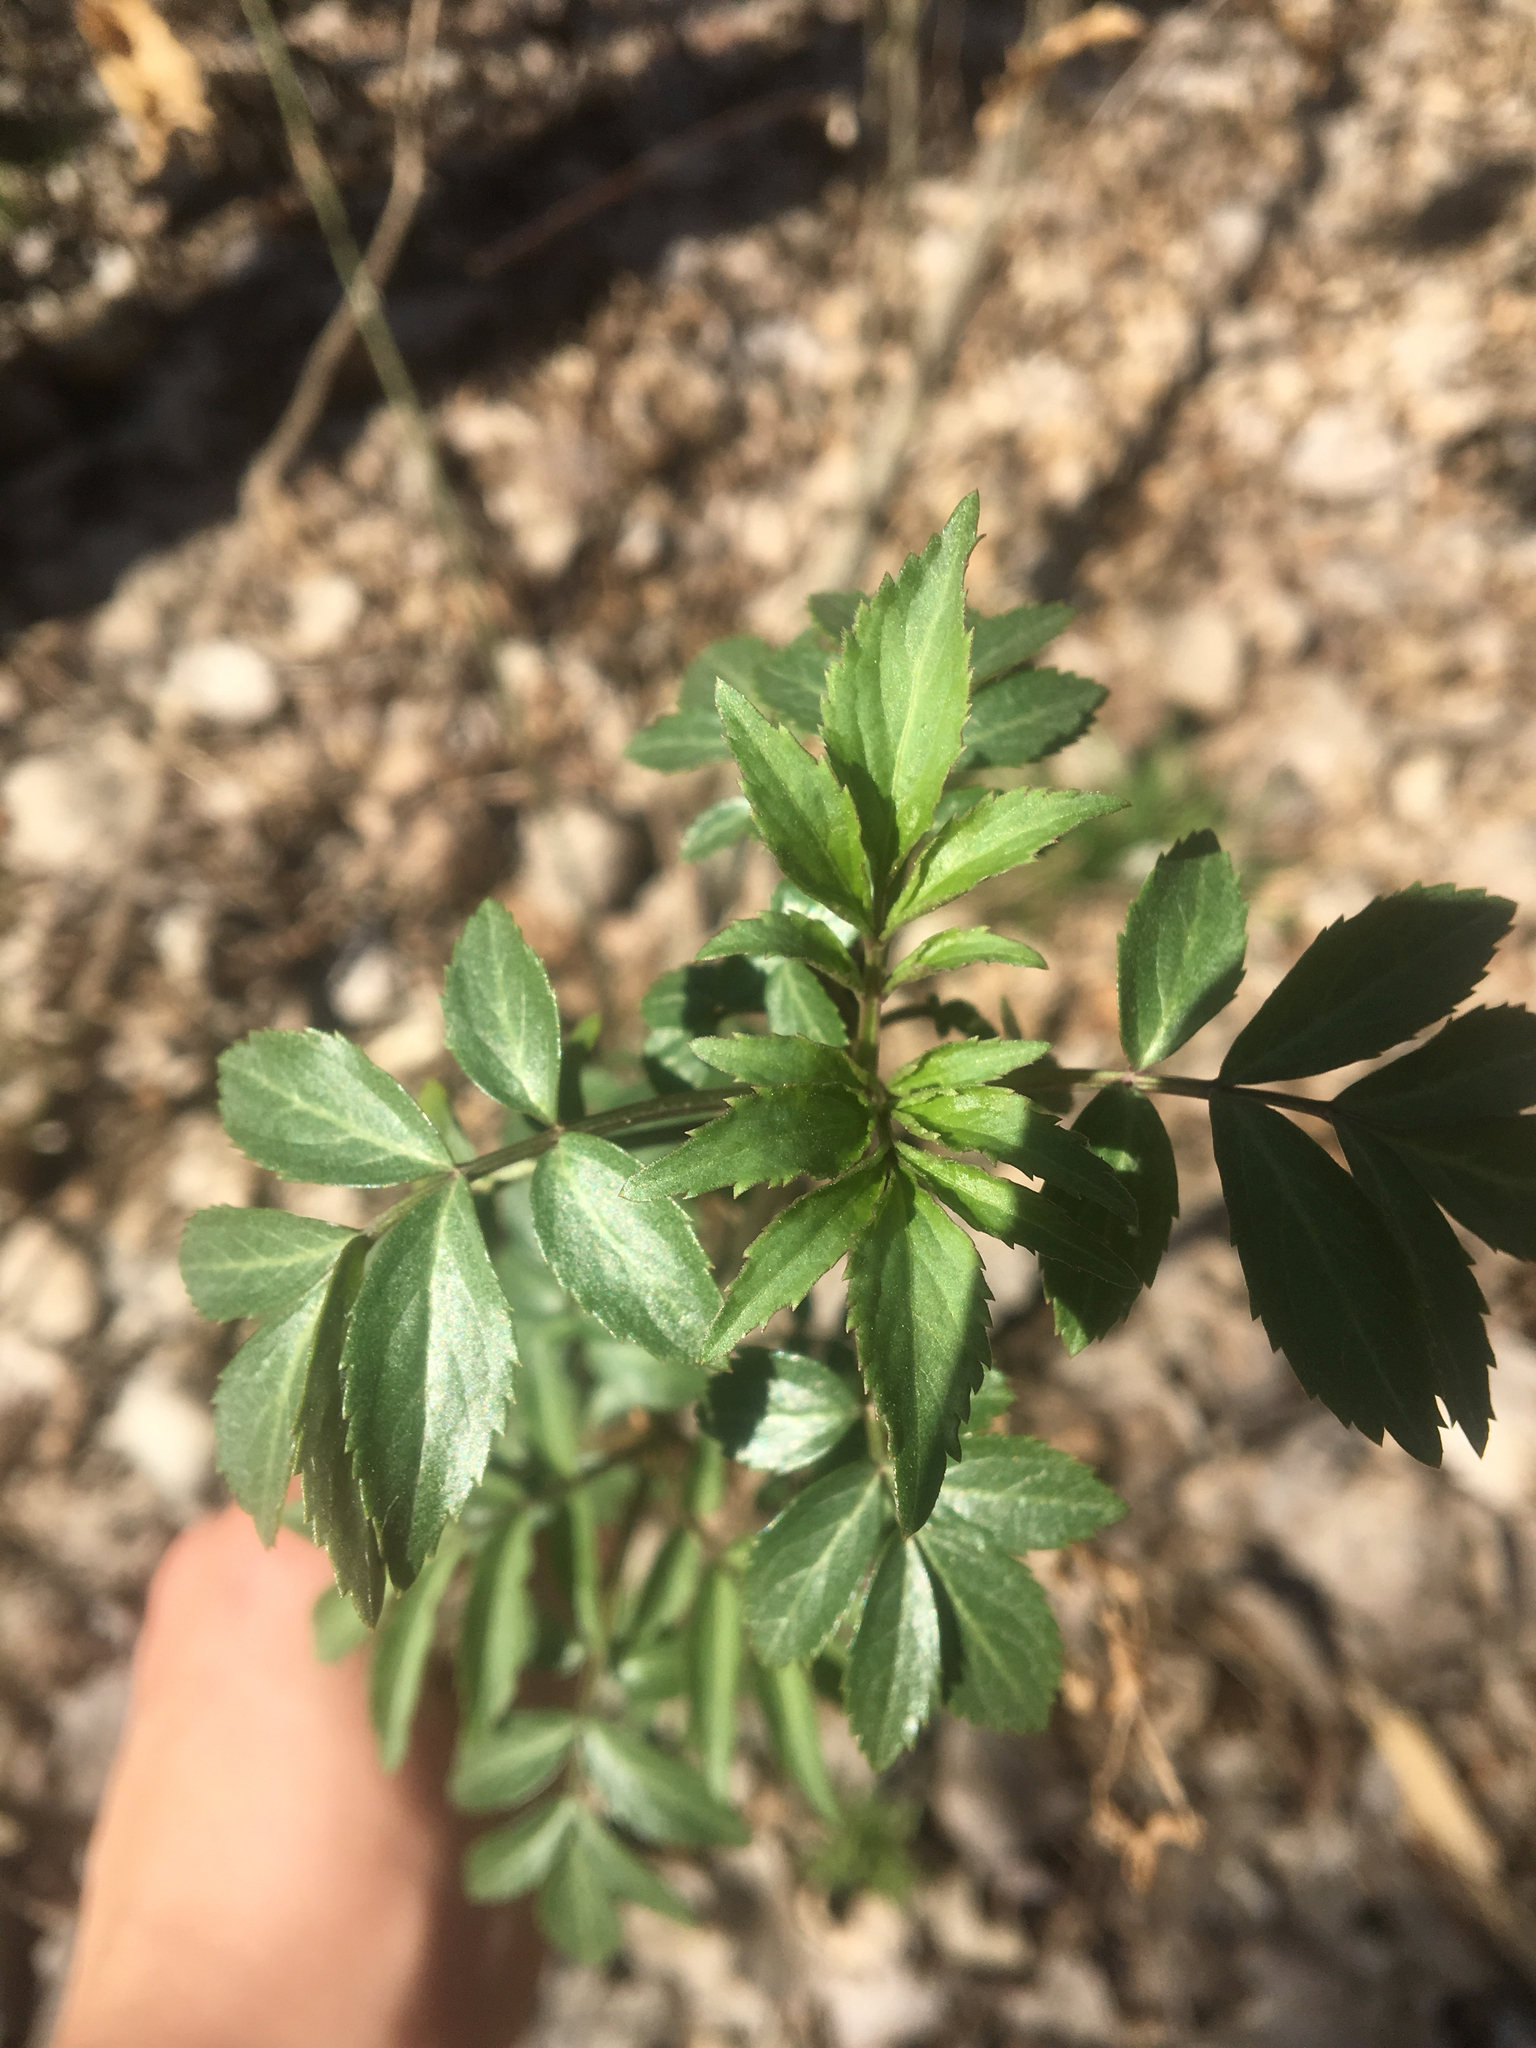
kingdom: Plantae
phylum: Tracheophyta
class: Magnoliopsida
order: Dipsacales
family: Viburnaceae
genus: Sambucus
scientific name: Sambucus canadensis
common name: American elder
